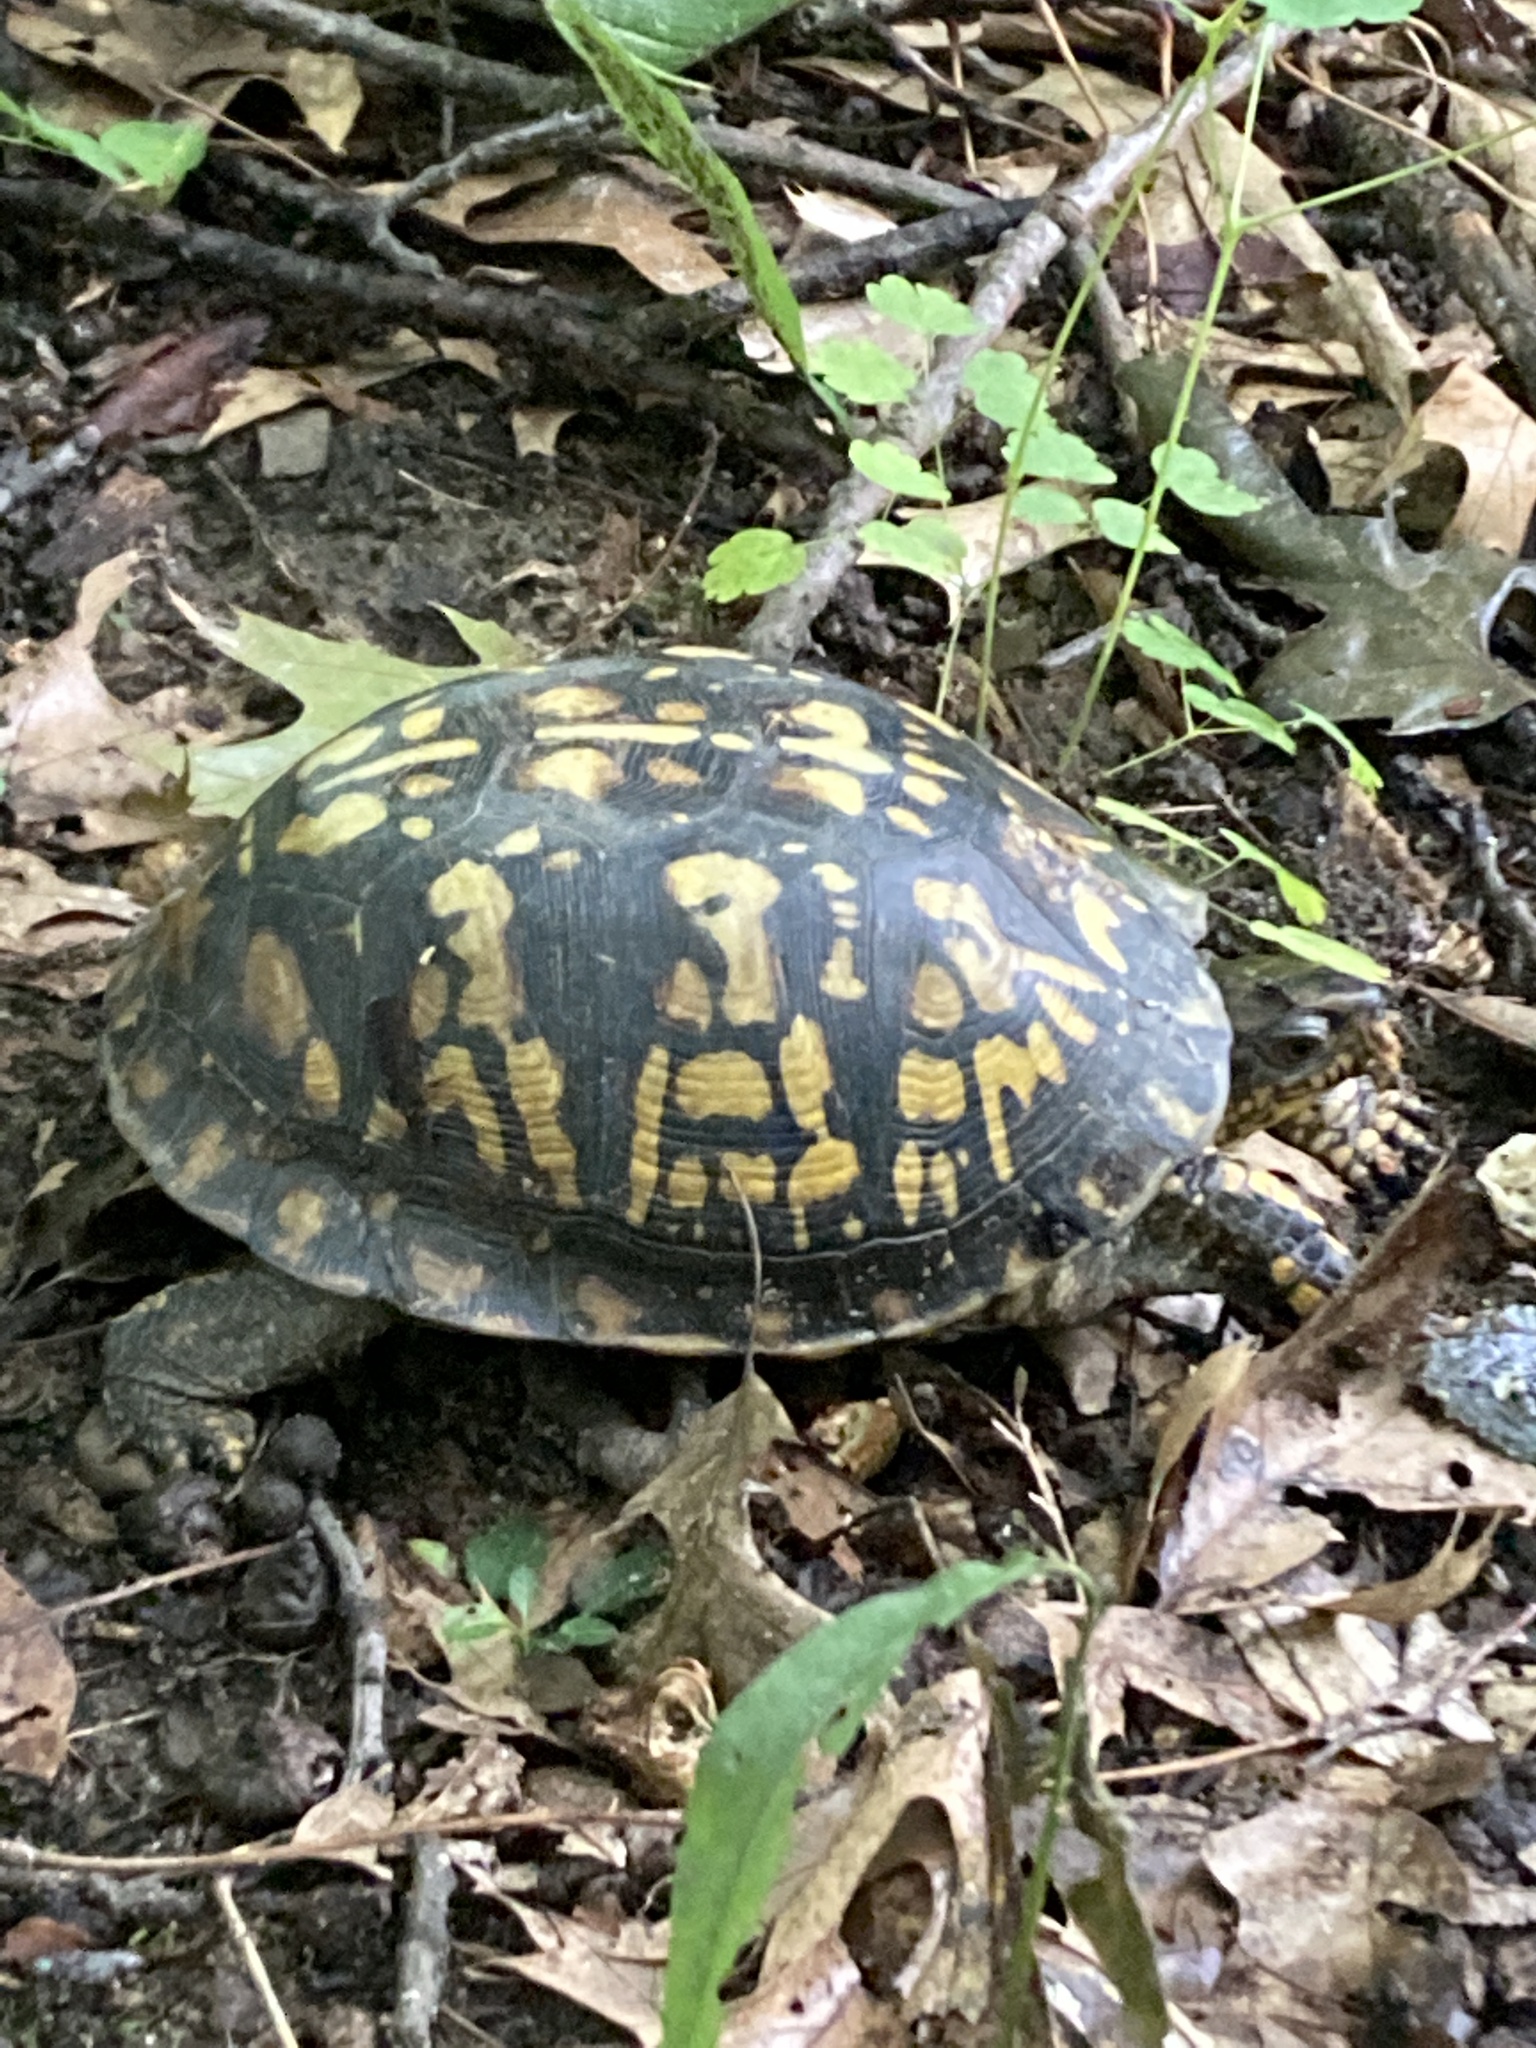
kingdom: Animalia
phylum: Chordata
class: Testudines
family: Emydidae
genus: Terrapene
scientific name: Terrapene carolina
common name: Common box turtle
